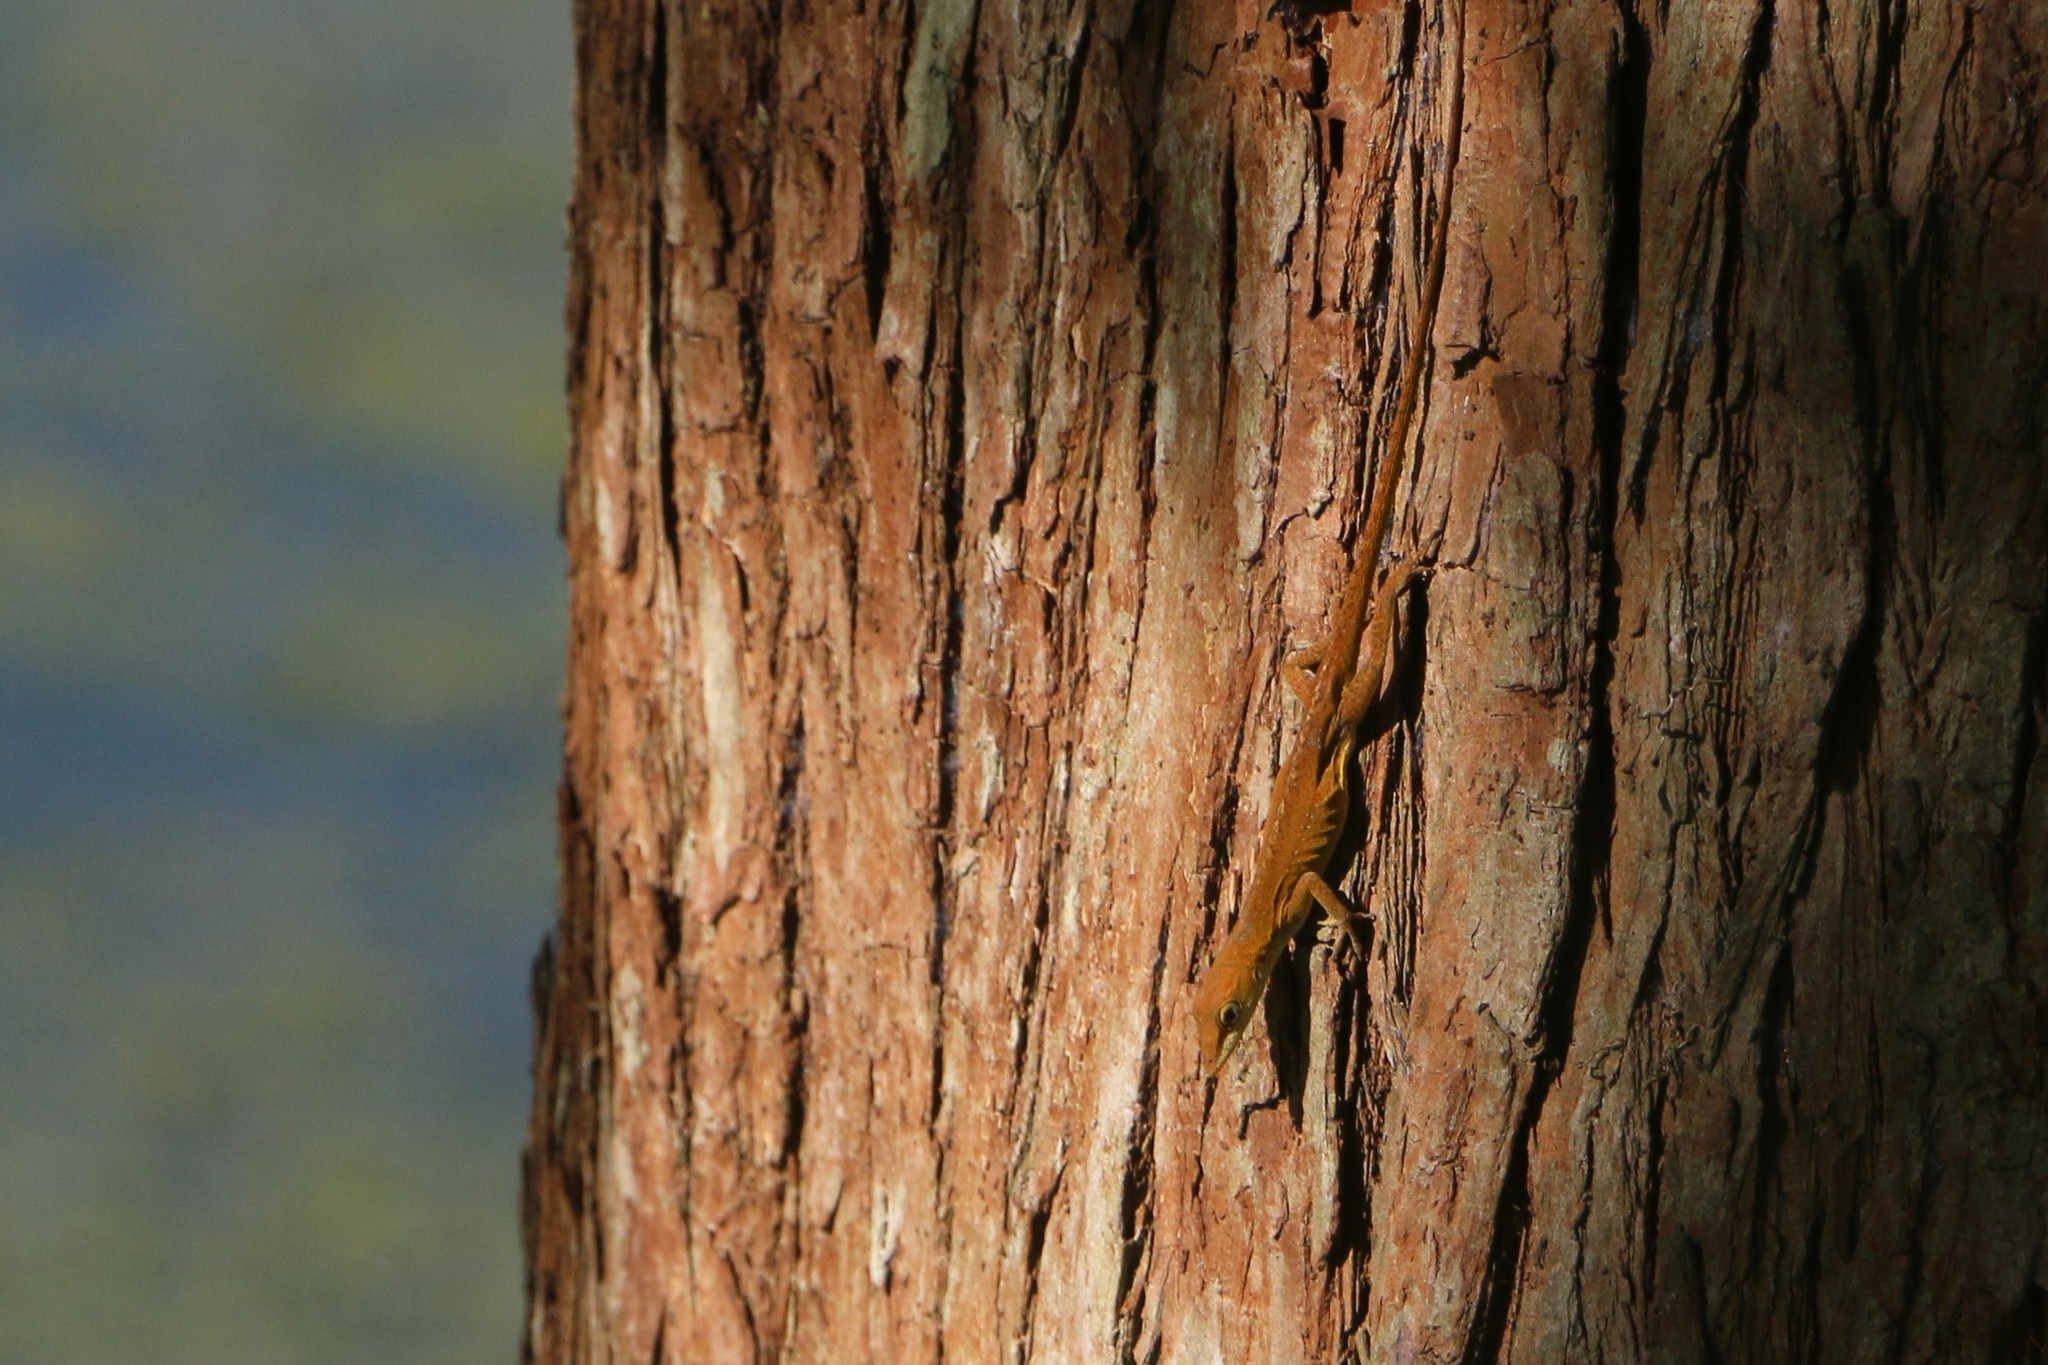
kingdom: Animalia
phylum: Chordata
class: Squamata
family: Dactyloidae
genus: Anolis
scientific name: Anolis carolinensis
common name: Green anole
